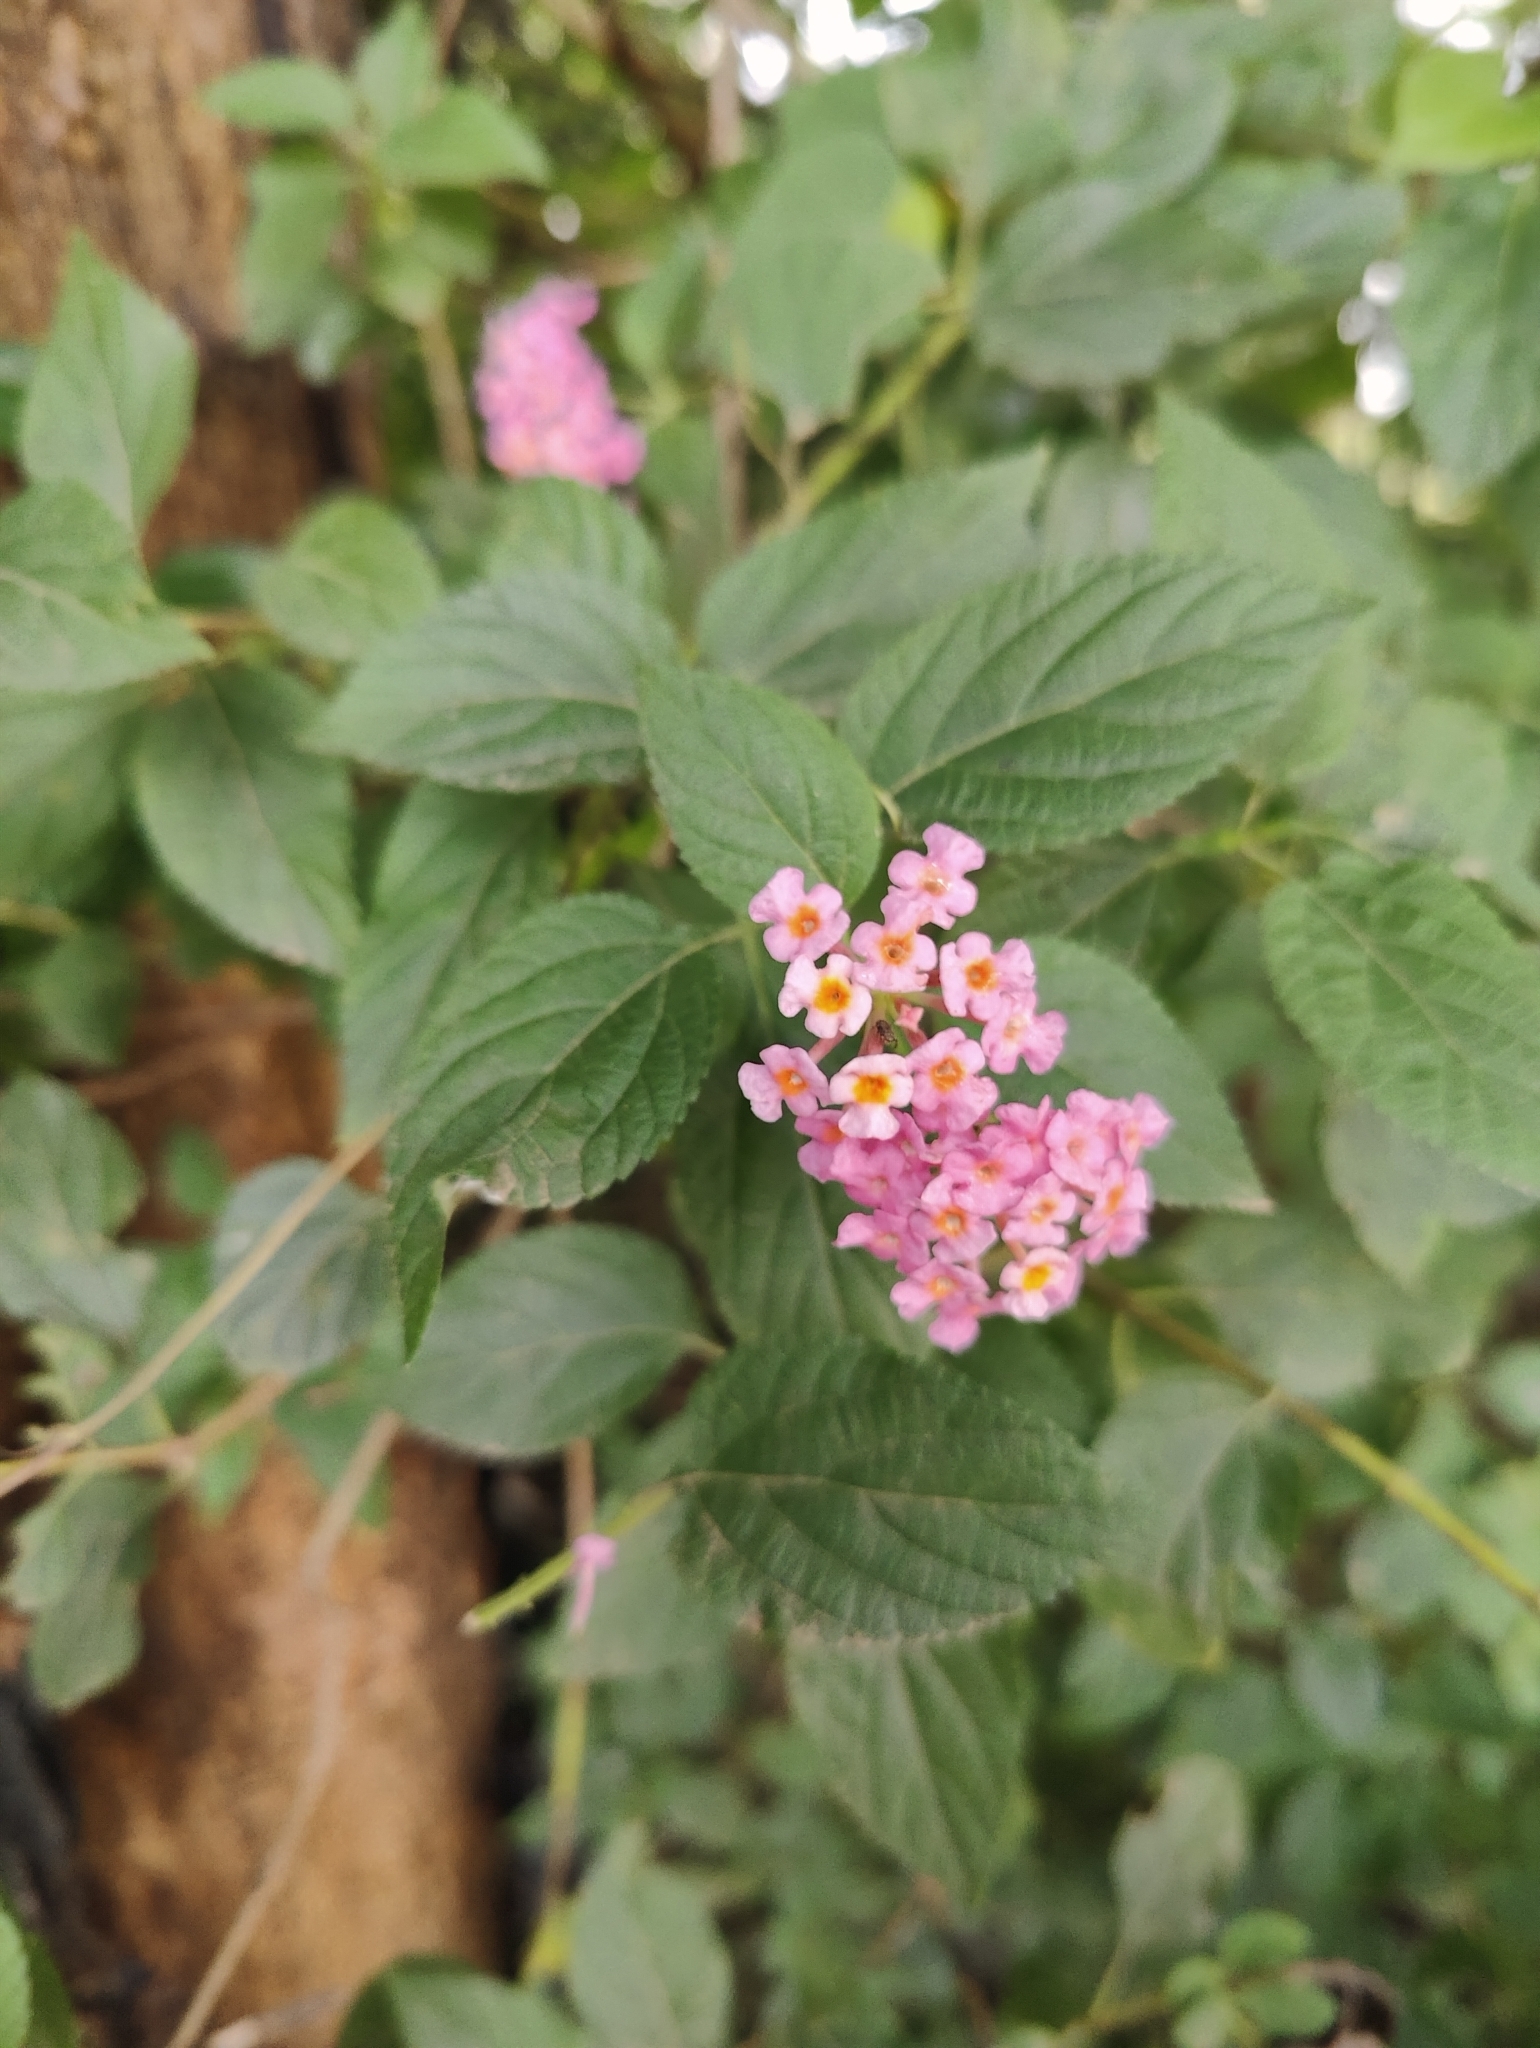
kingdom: Plantae
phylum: Tracheophyta
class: Magnoliopsida
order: Lamiales
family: Verbenaceae
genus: Lantana
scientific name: Lantana camara
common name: Lantana
